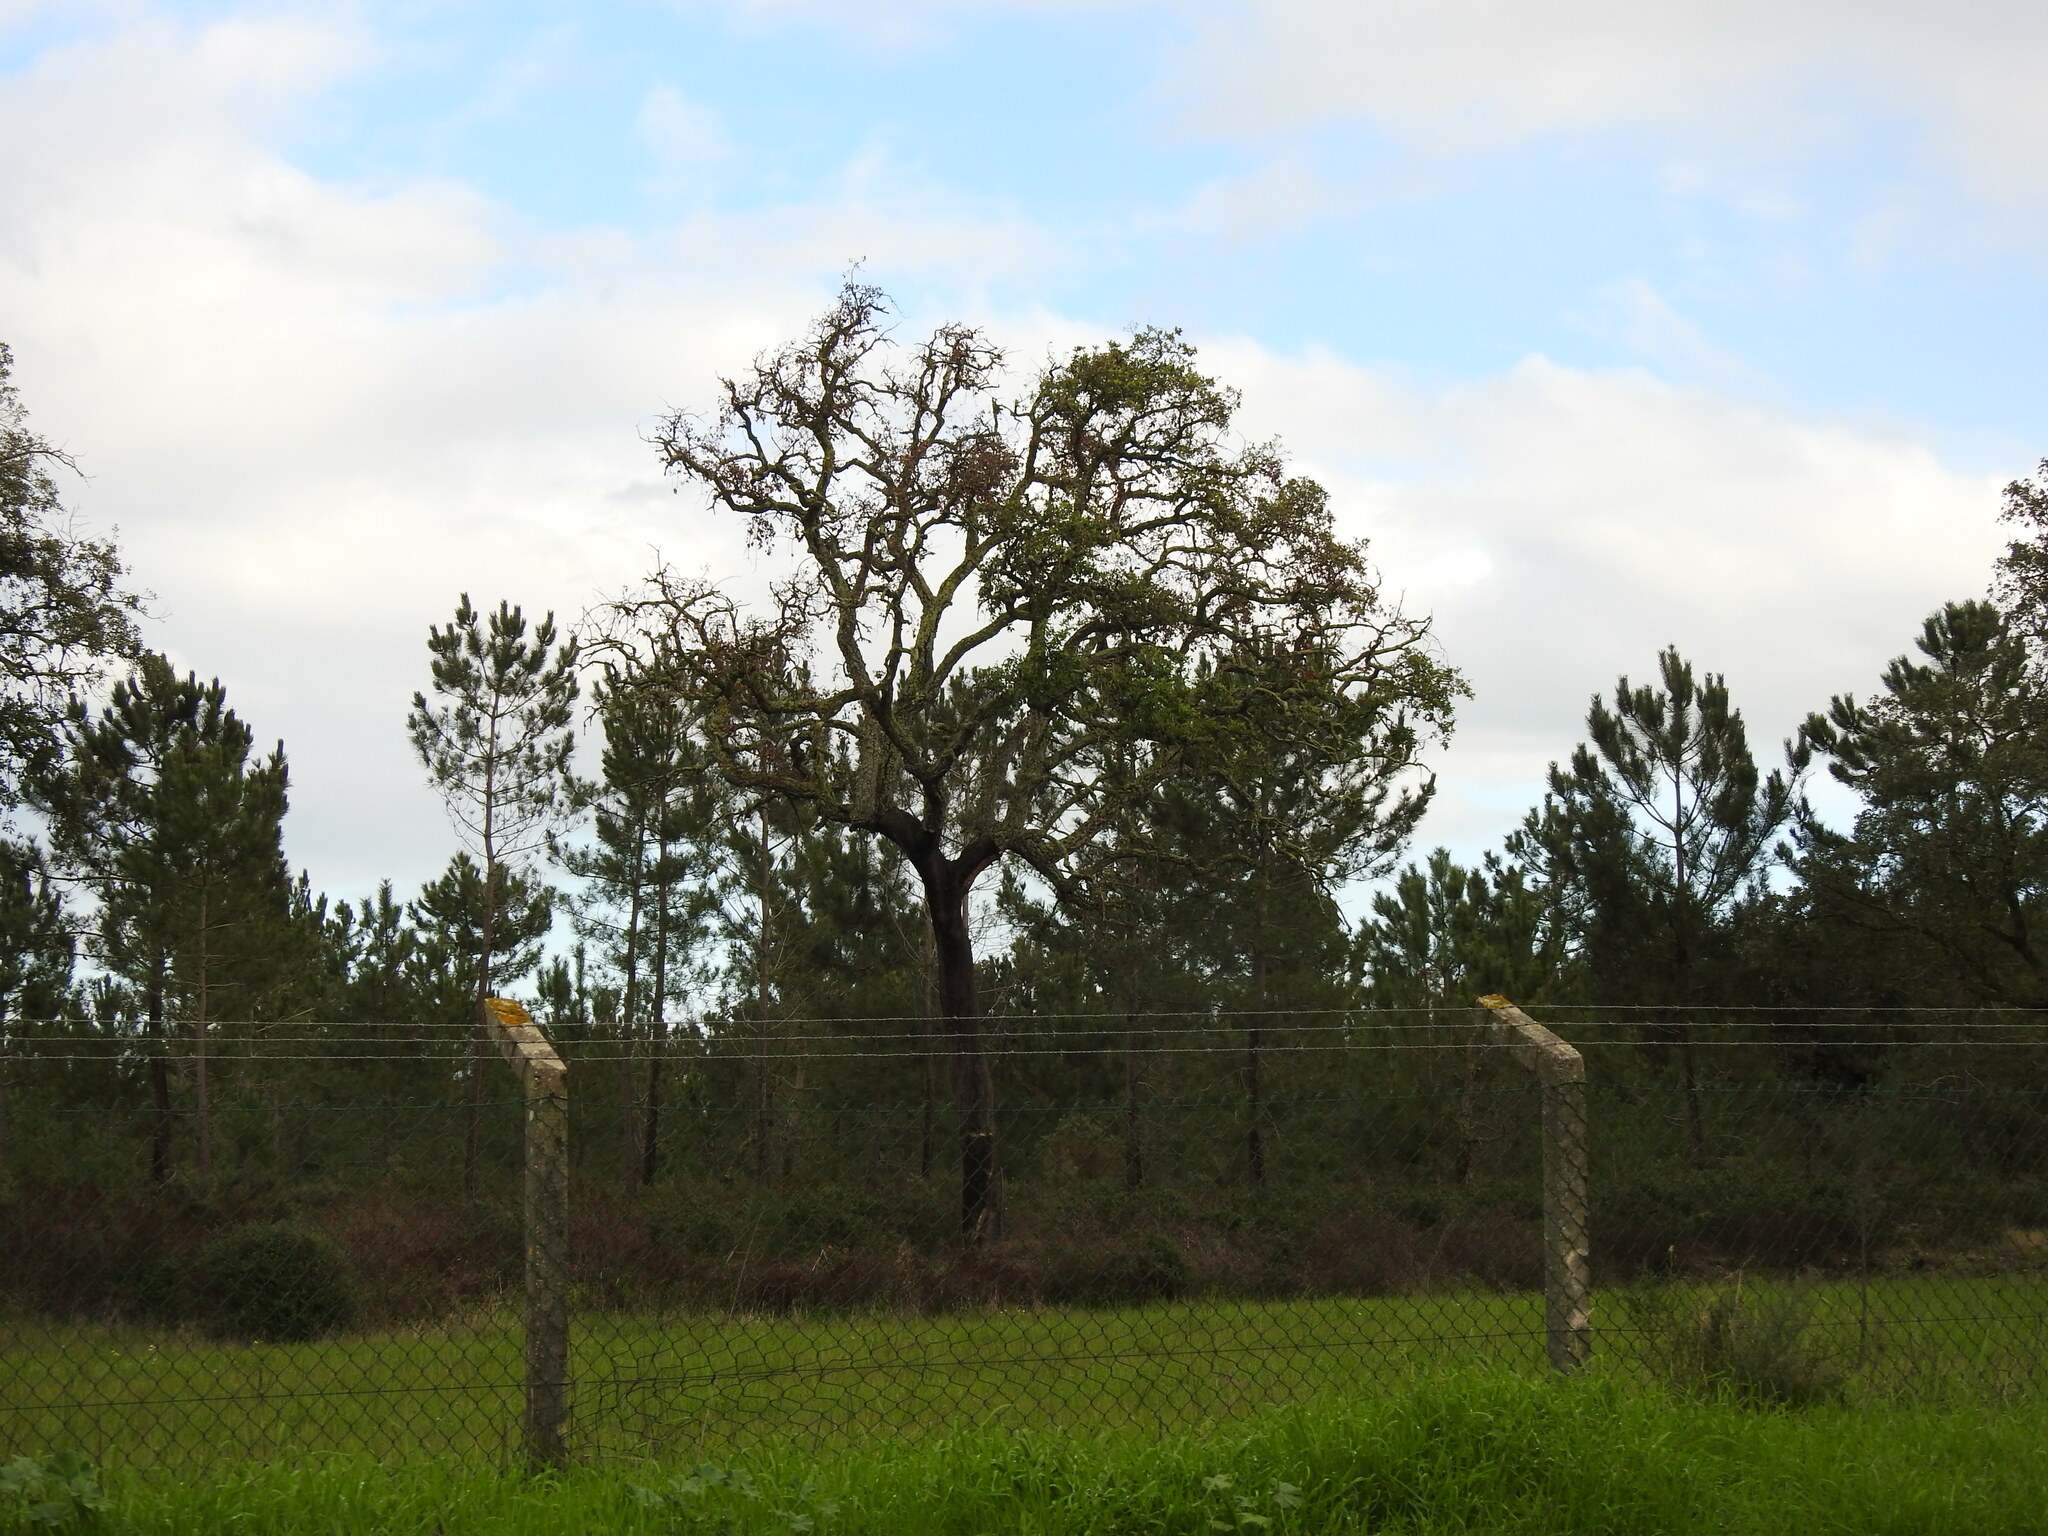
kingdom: Plantae
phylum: Tracheophyta
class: Magnoliopsida
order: Fagales
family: Fagaceae
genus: Quercus
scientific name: Quercus suber
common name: Cork oak
